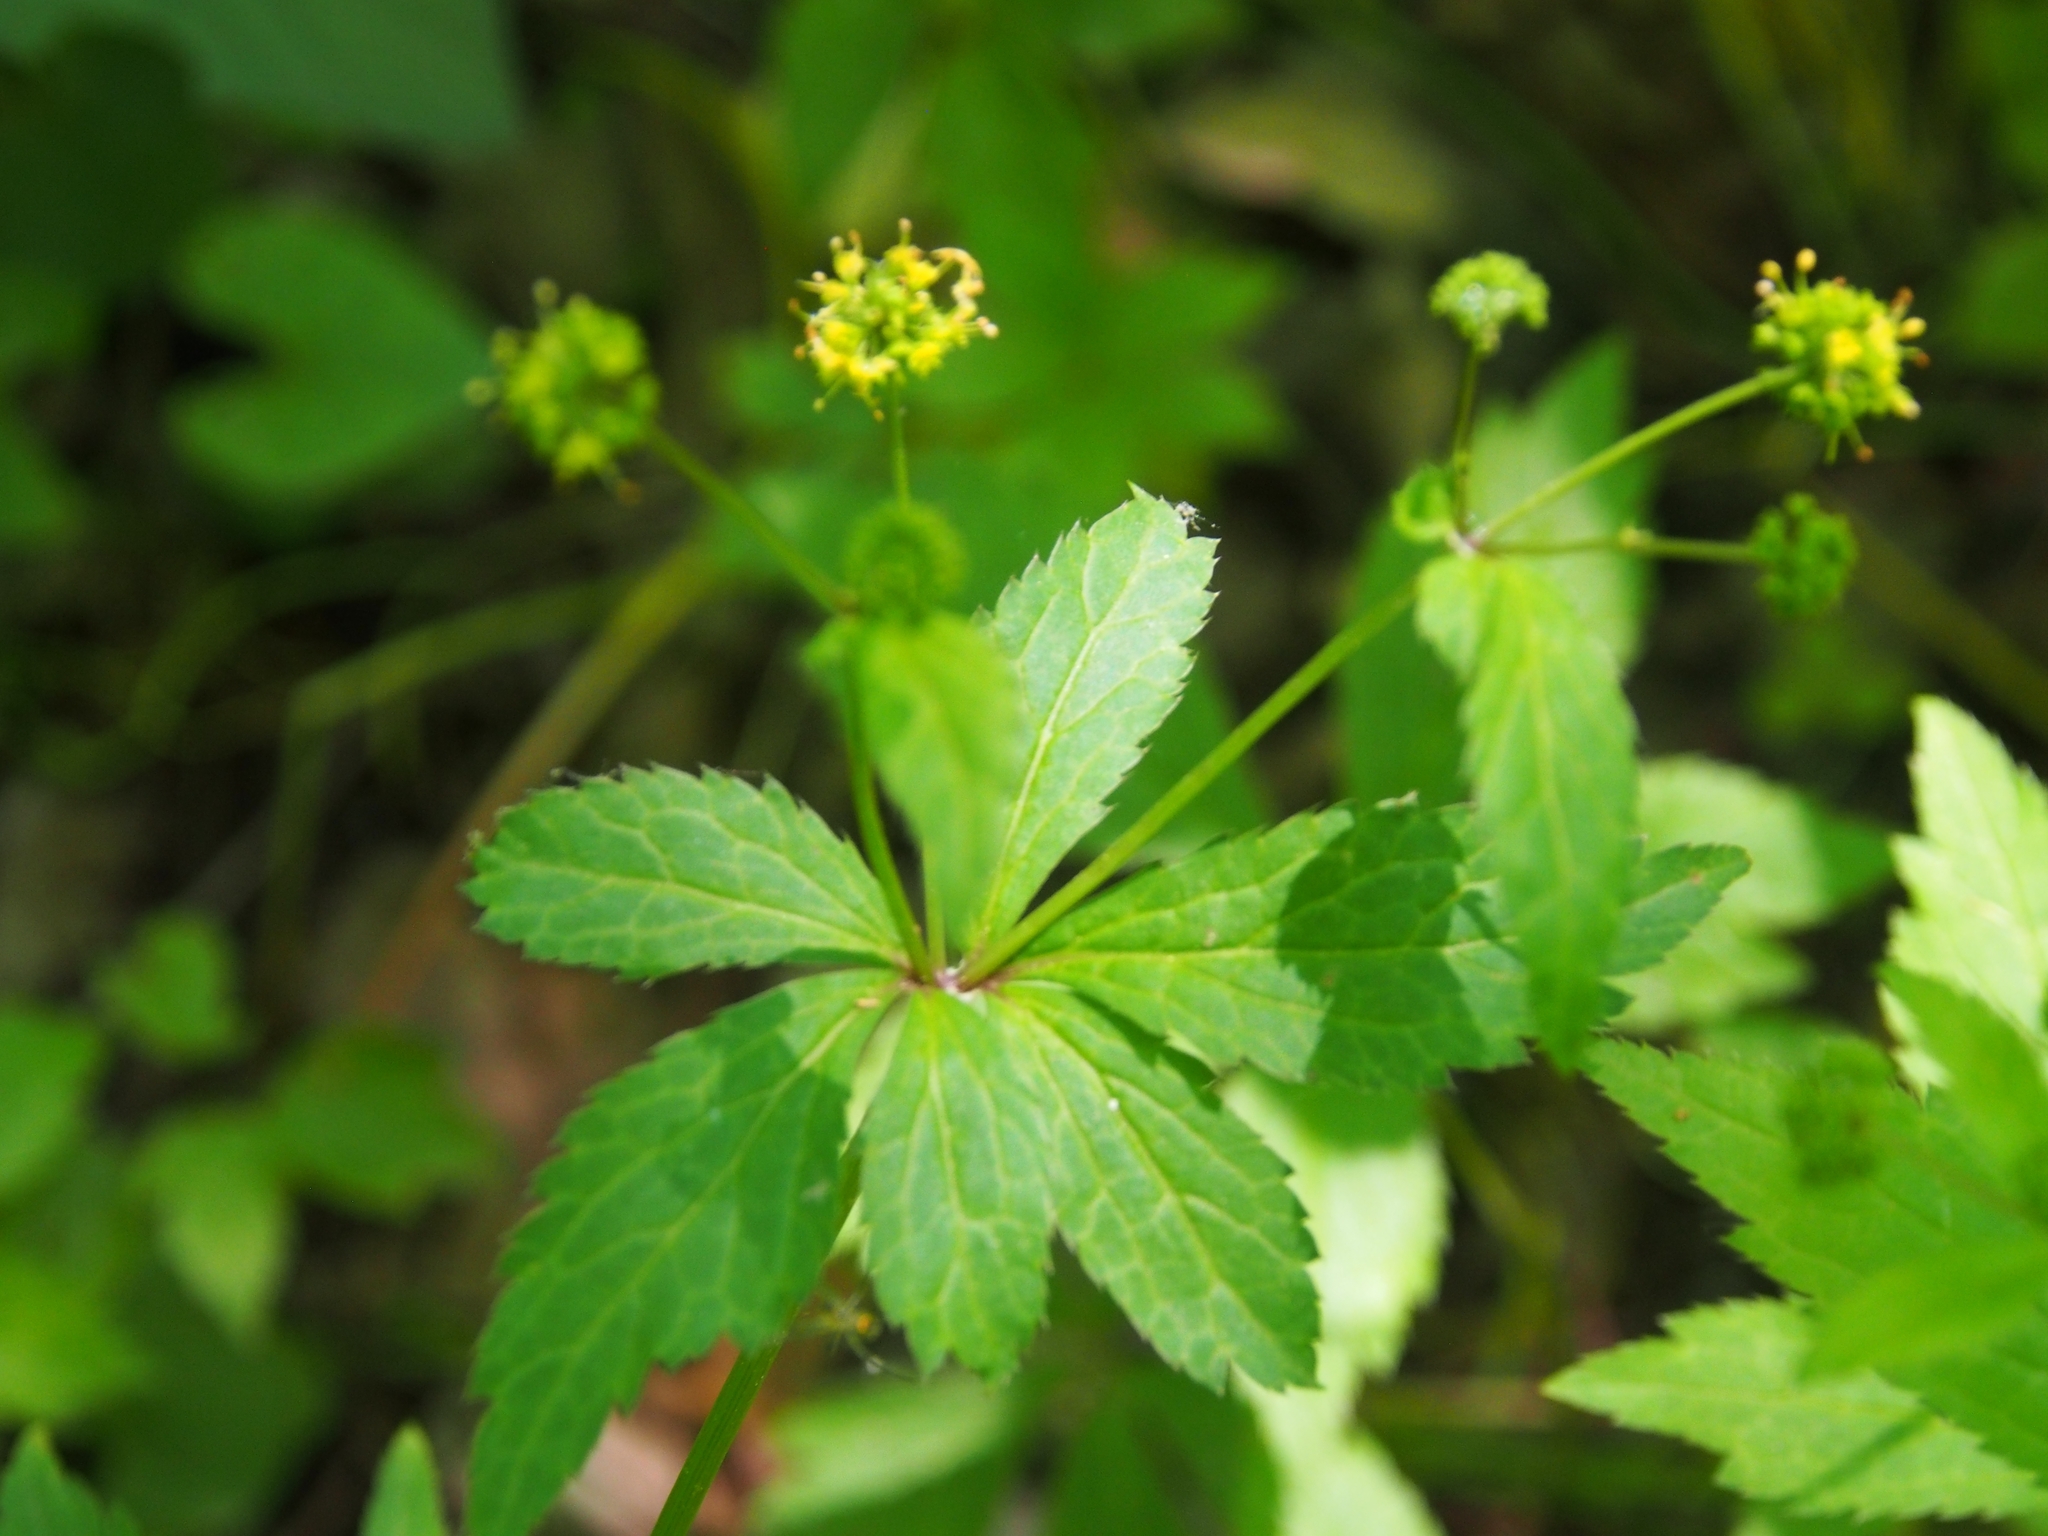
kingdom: Plantae
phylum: Tracheophyta
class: Magnoliopsida
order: Apiales
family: Apiaceae
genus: Sanicula
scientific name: Sanicula odorata
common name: Cluster sanicle
